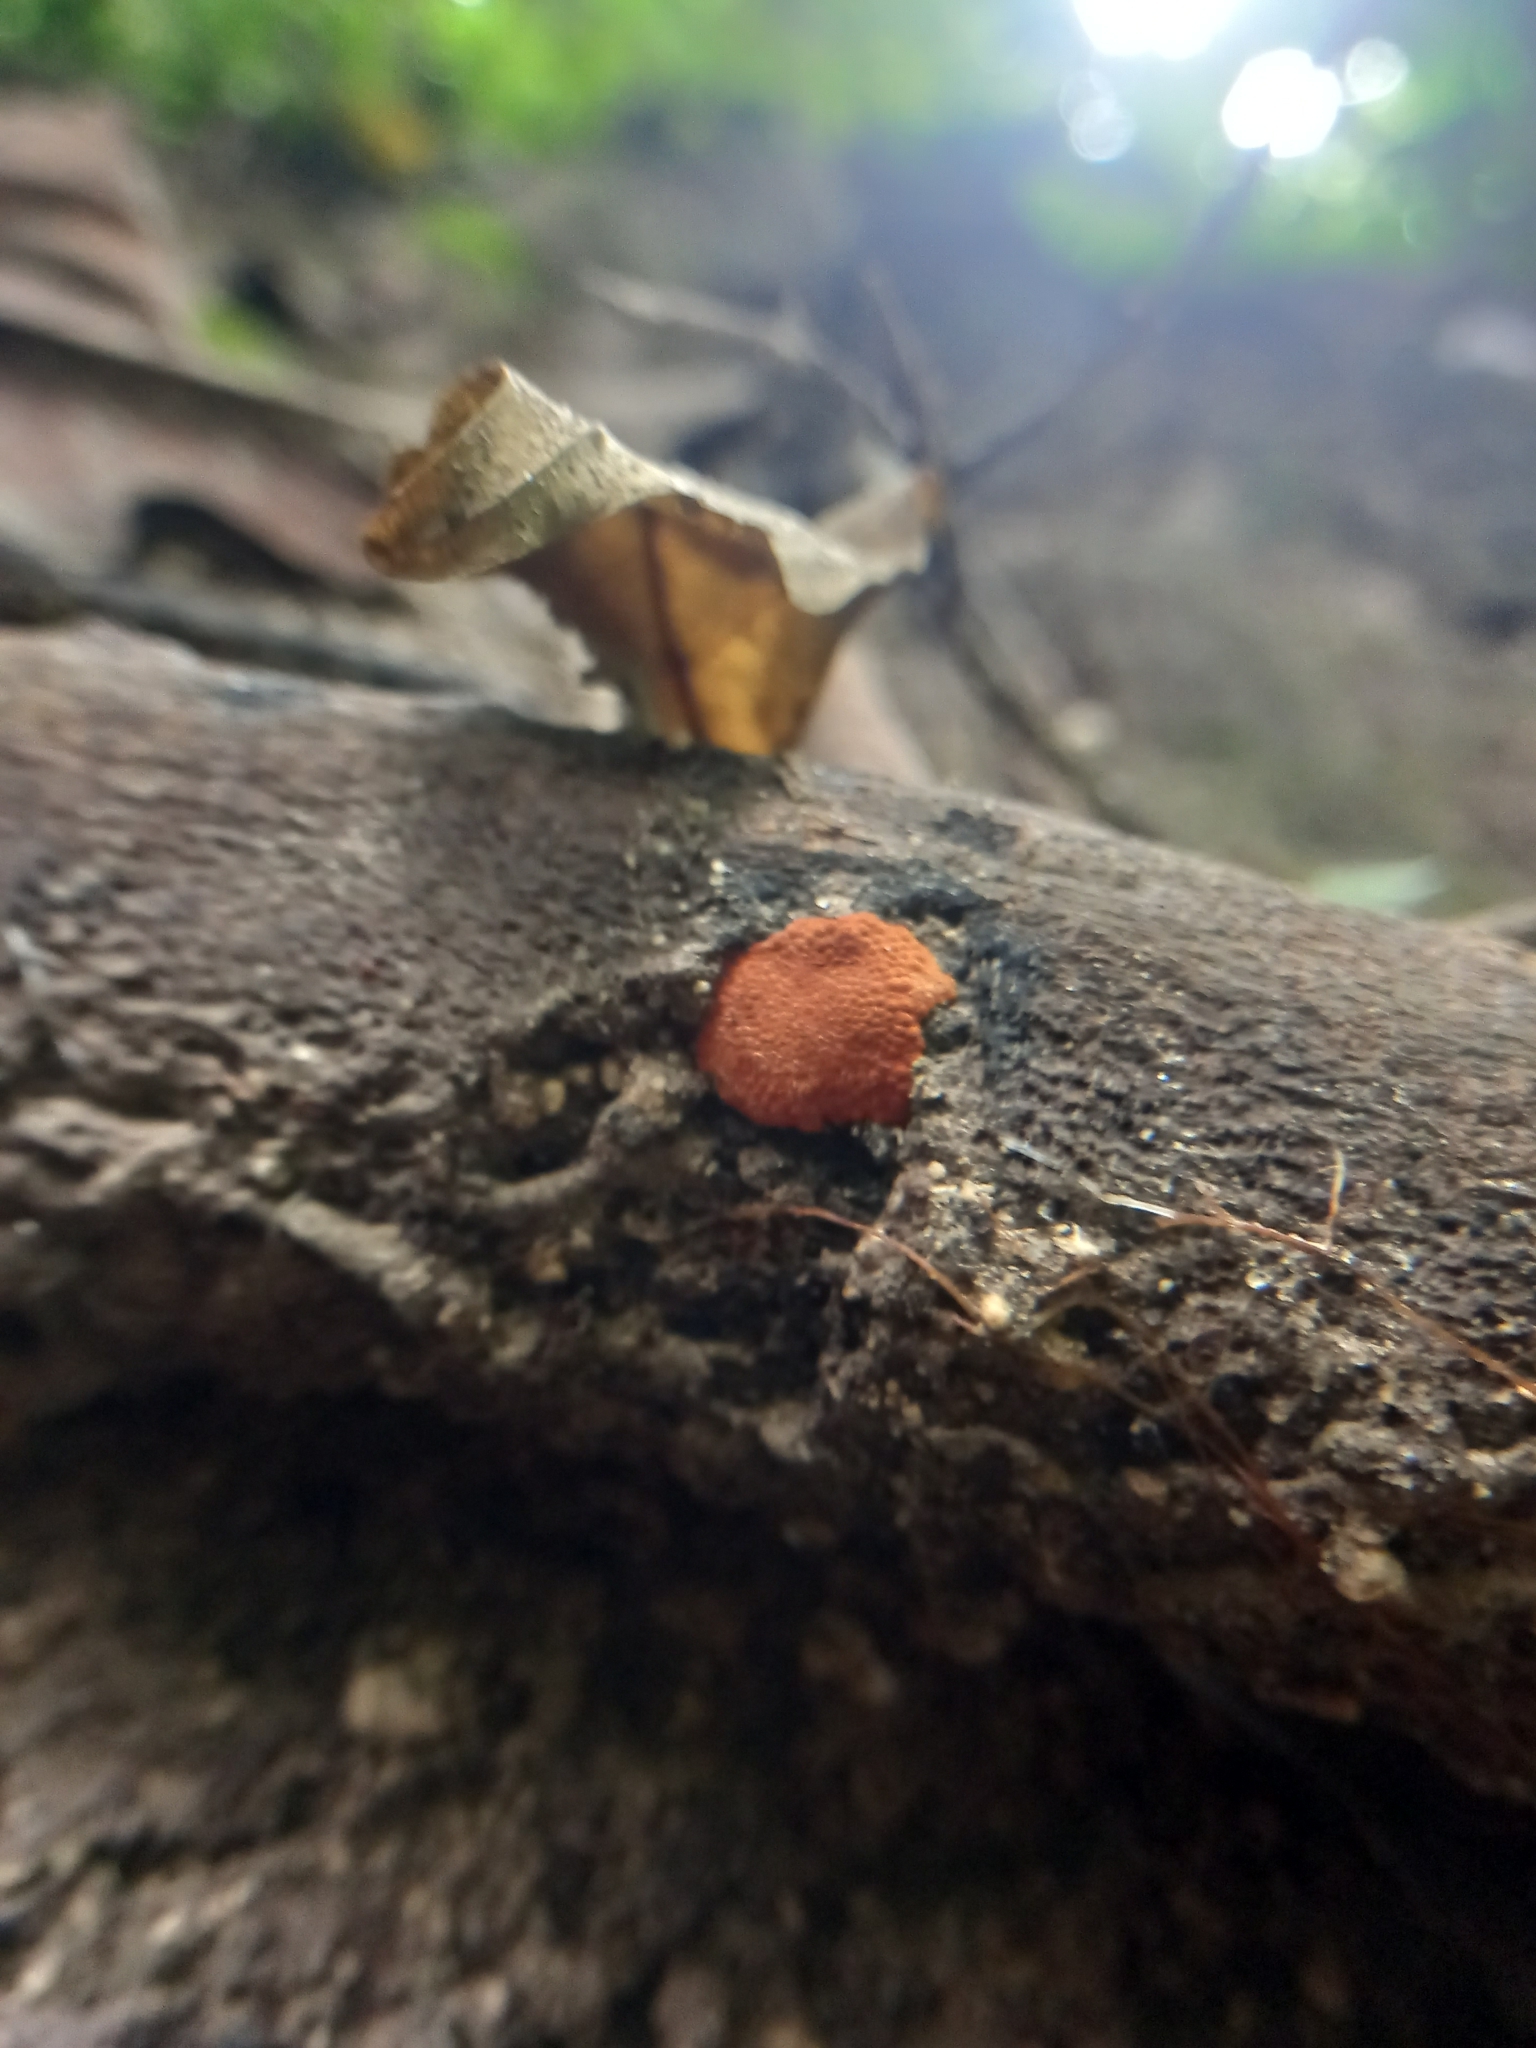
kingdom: Fungi
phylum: Ascomycota
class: Sordariomycetes
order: Xylariales
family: Hypoxylaceae
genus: Hypoxylon
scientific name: Hypoxylon haematostroma
